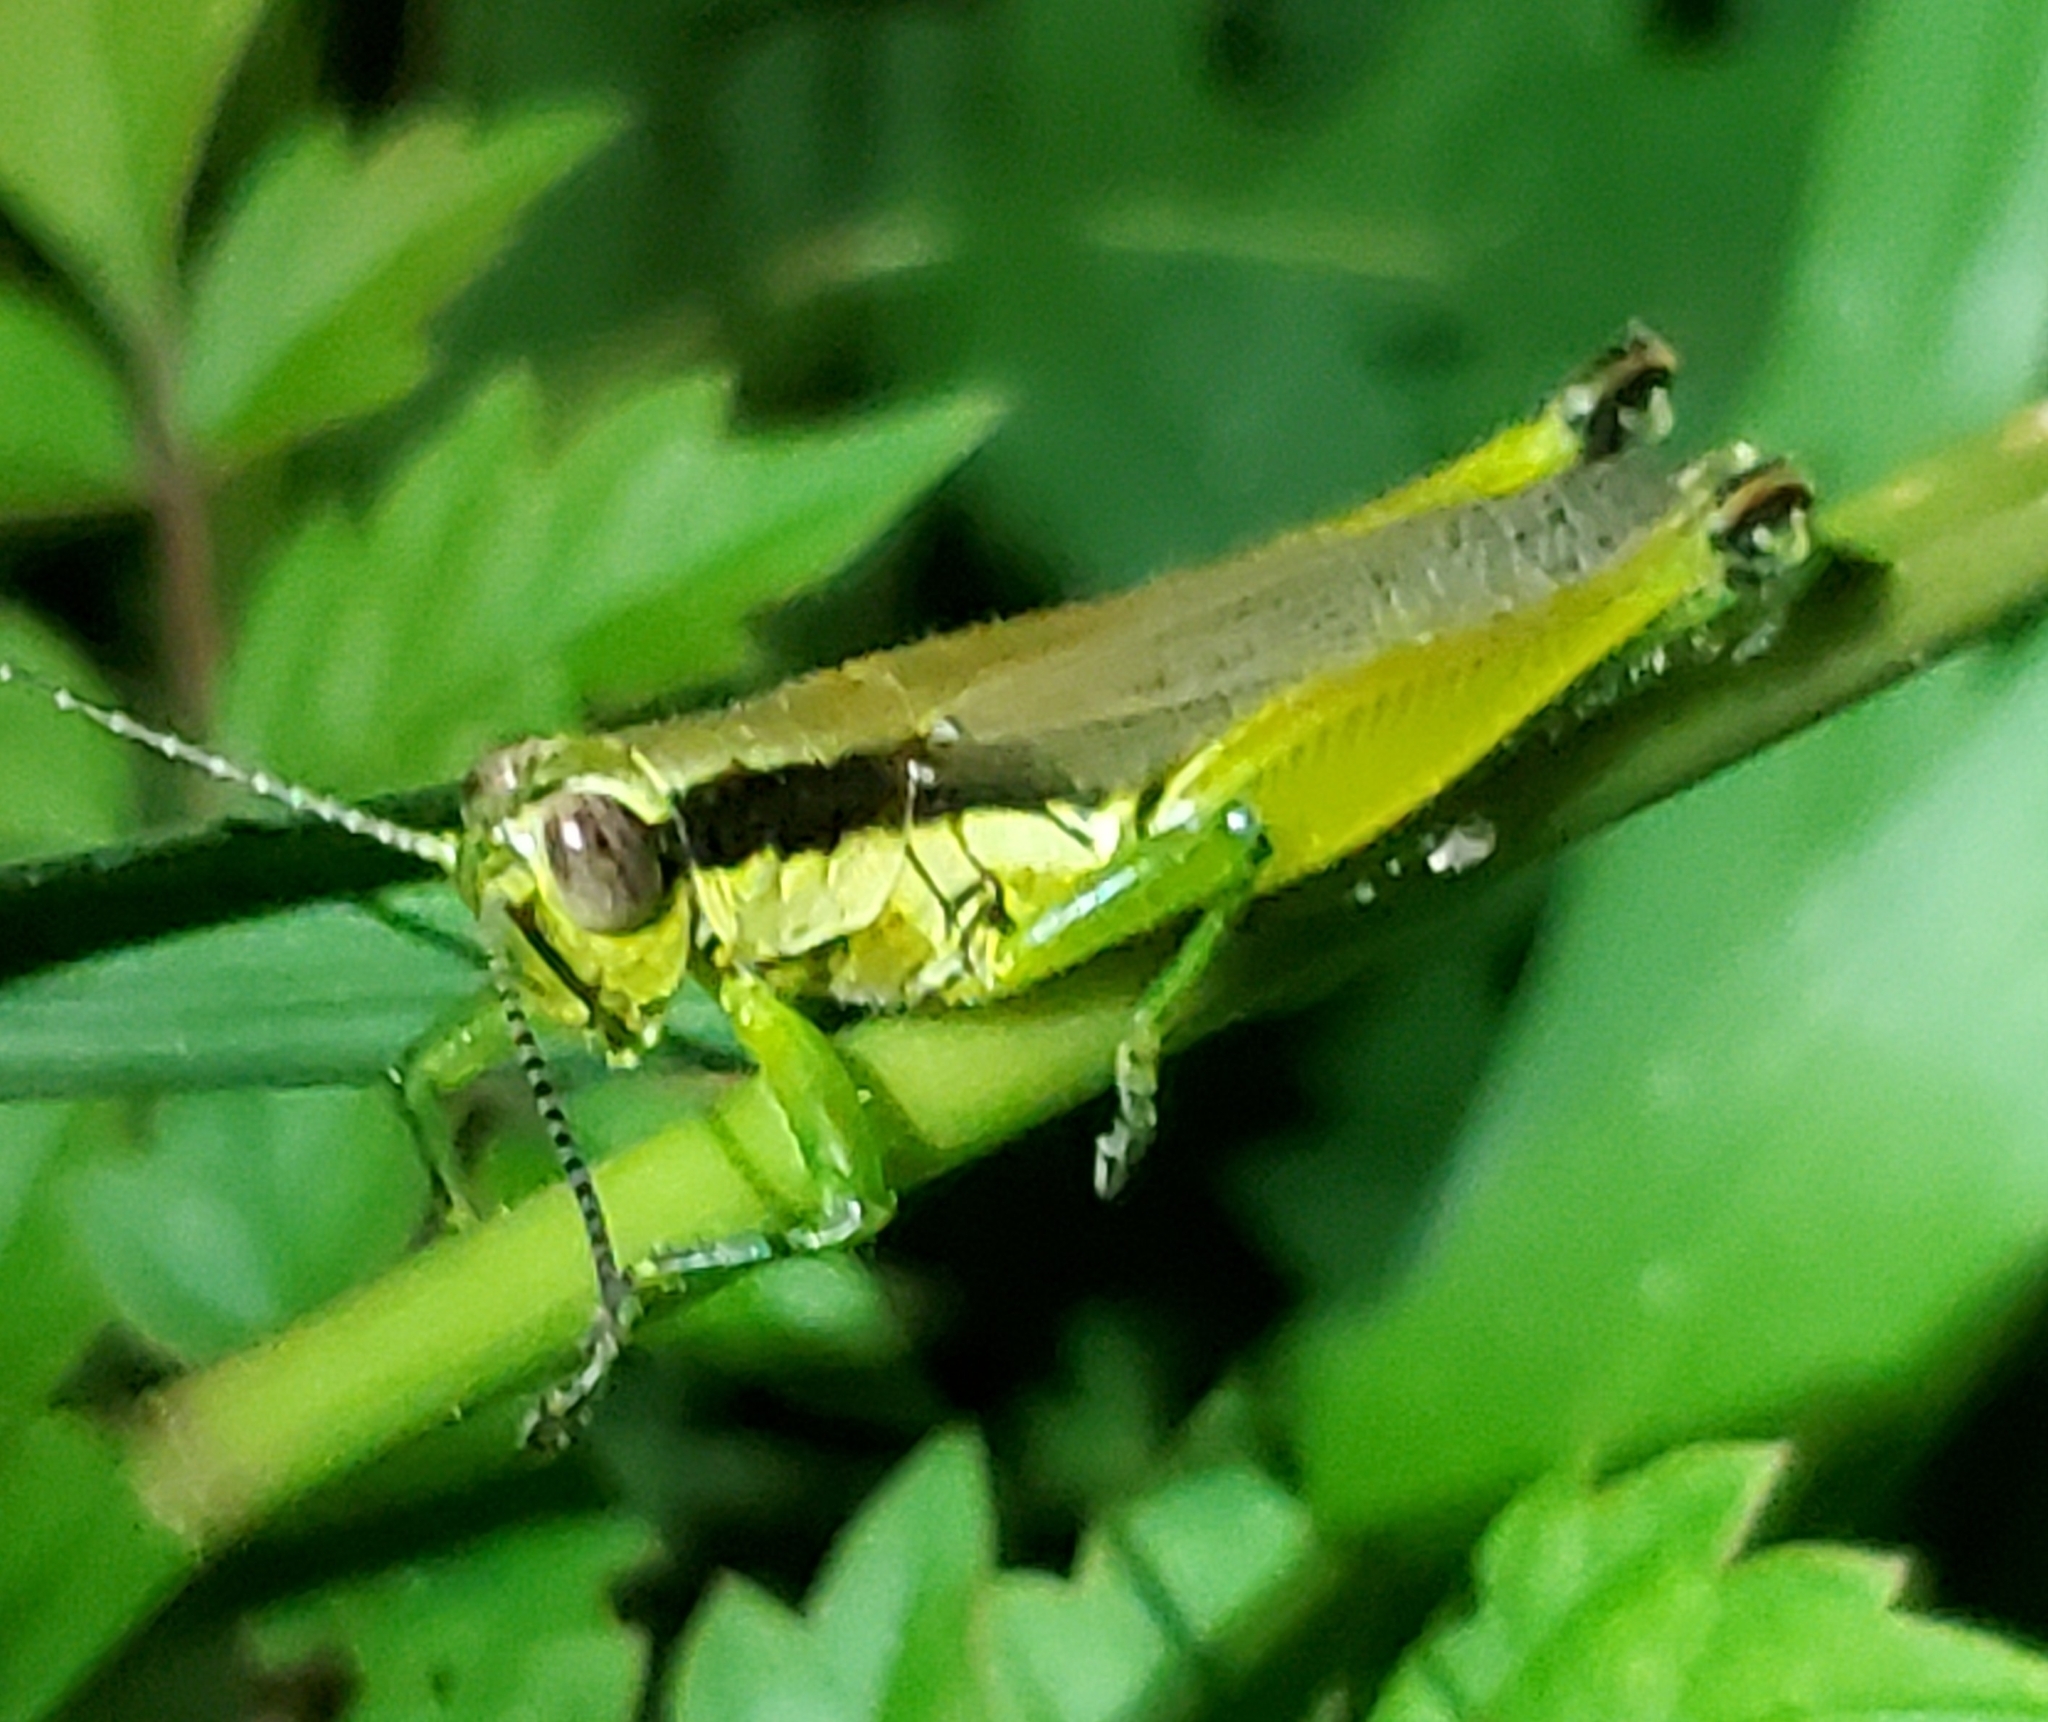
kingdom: Animalia
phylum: Arthropoda
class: Insecta
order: Orthoptera
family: Acrididae
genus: Paroxya
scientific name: Paroxya clavuligera
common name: Olive-green swamp grasshopper
